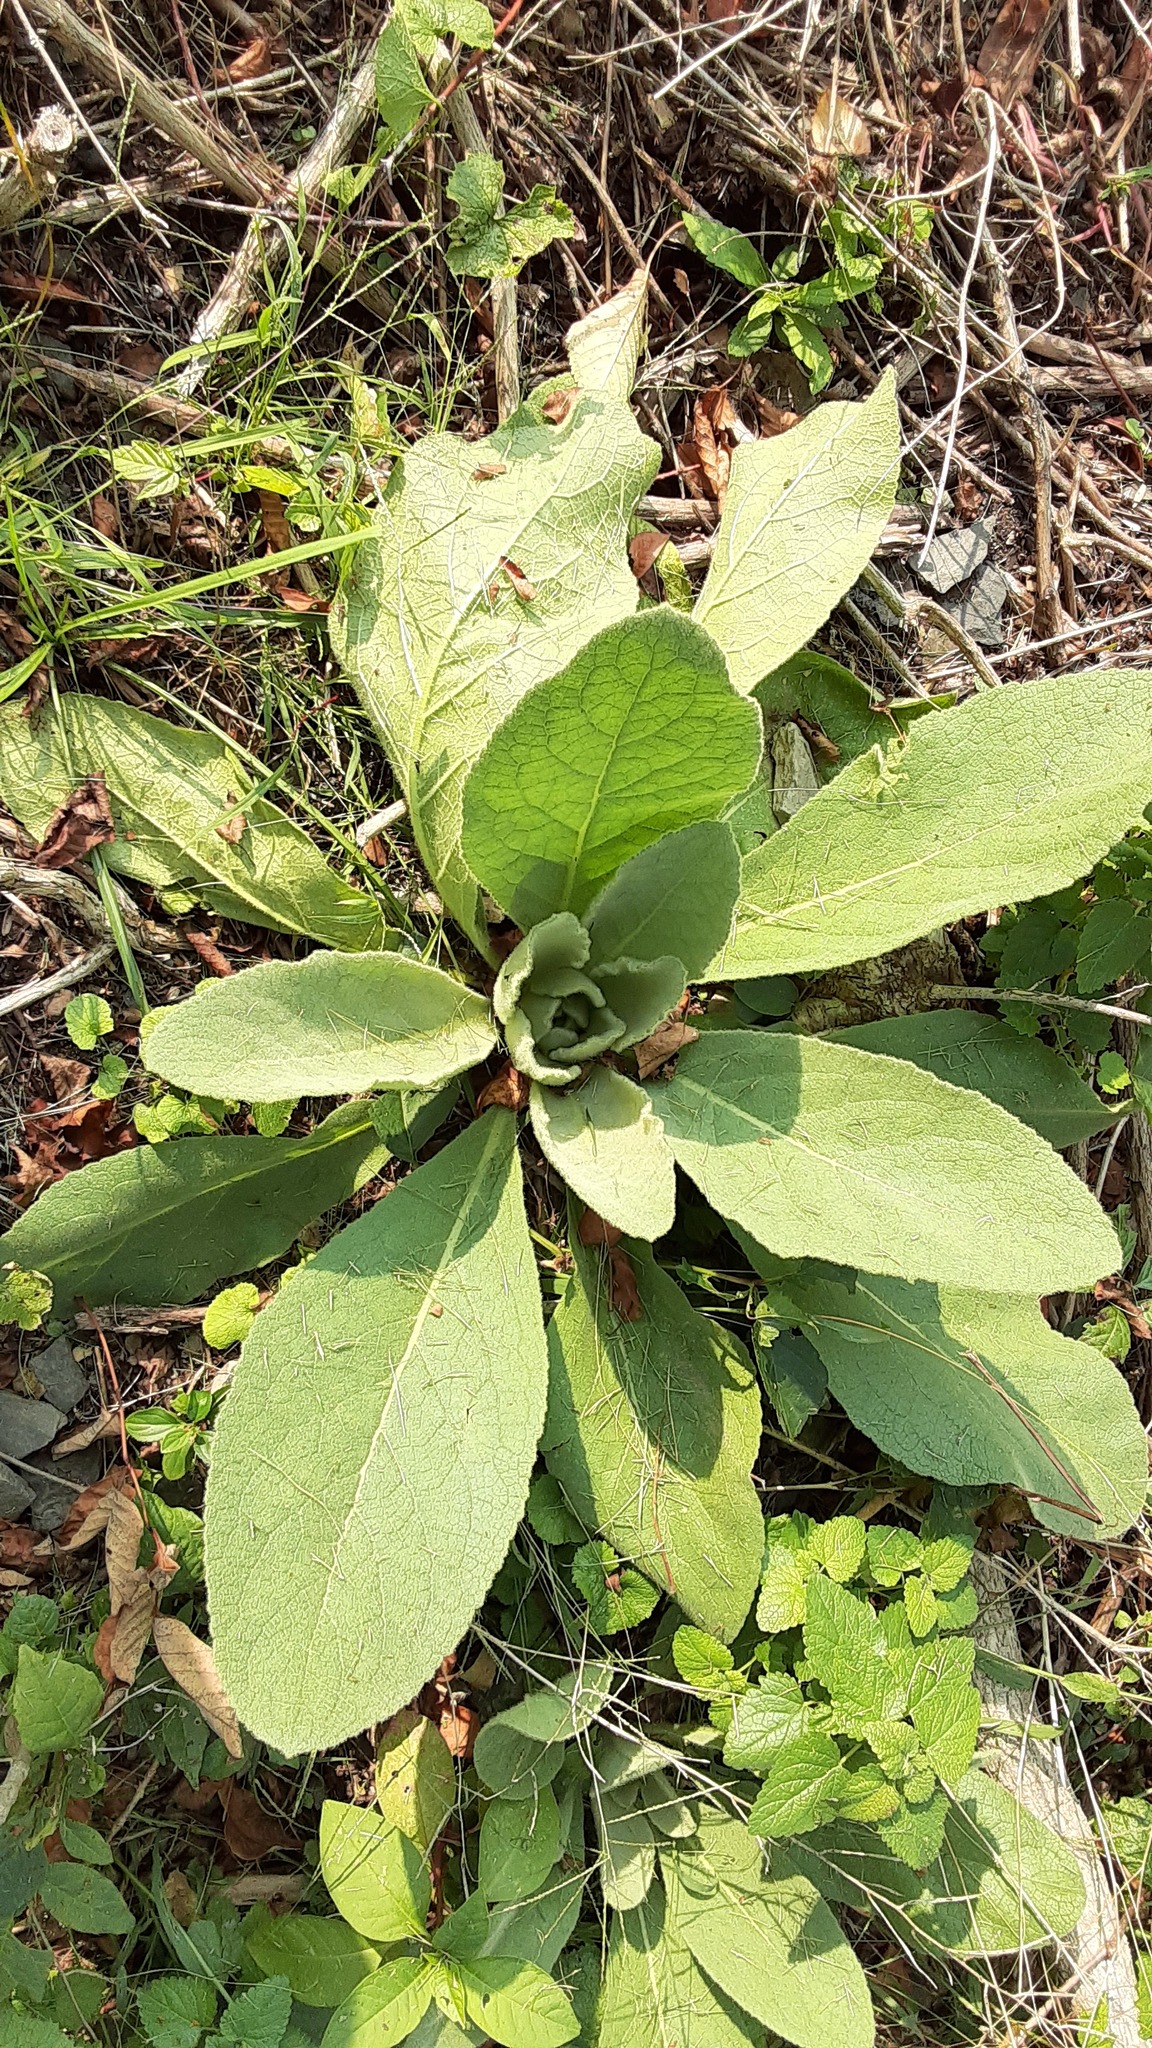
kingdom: Plantae
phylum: Tracheophyta
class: Magnoliopsida
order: Lamiales
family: Scrophulariaceae
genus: Verbascum
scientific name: Verbascum thapsus
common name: Common mullein
